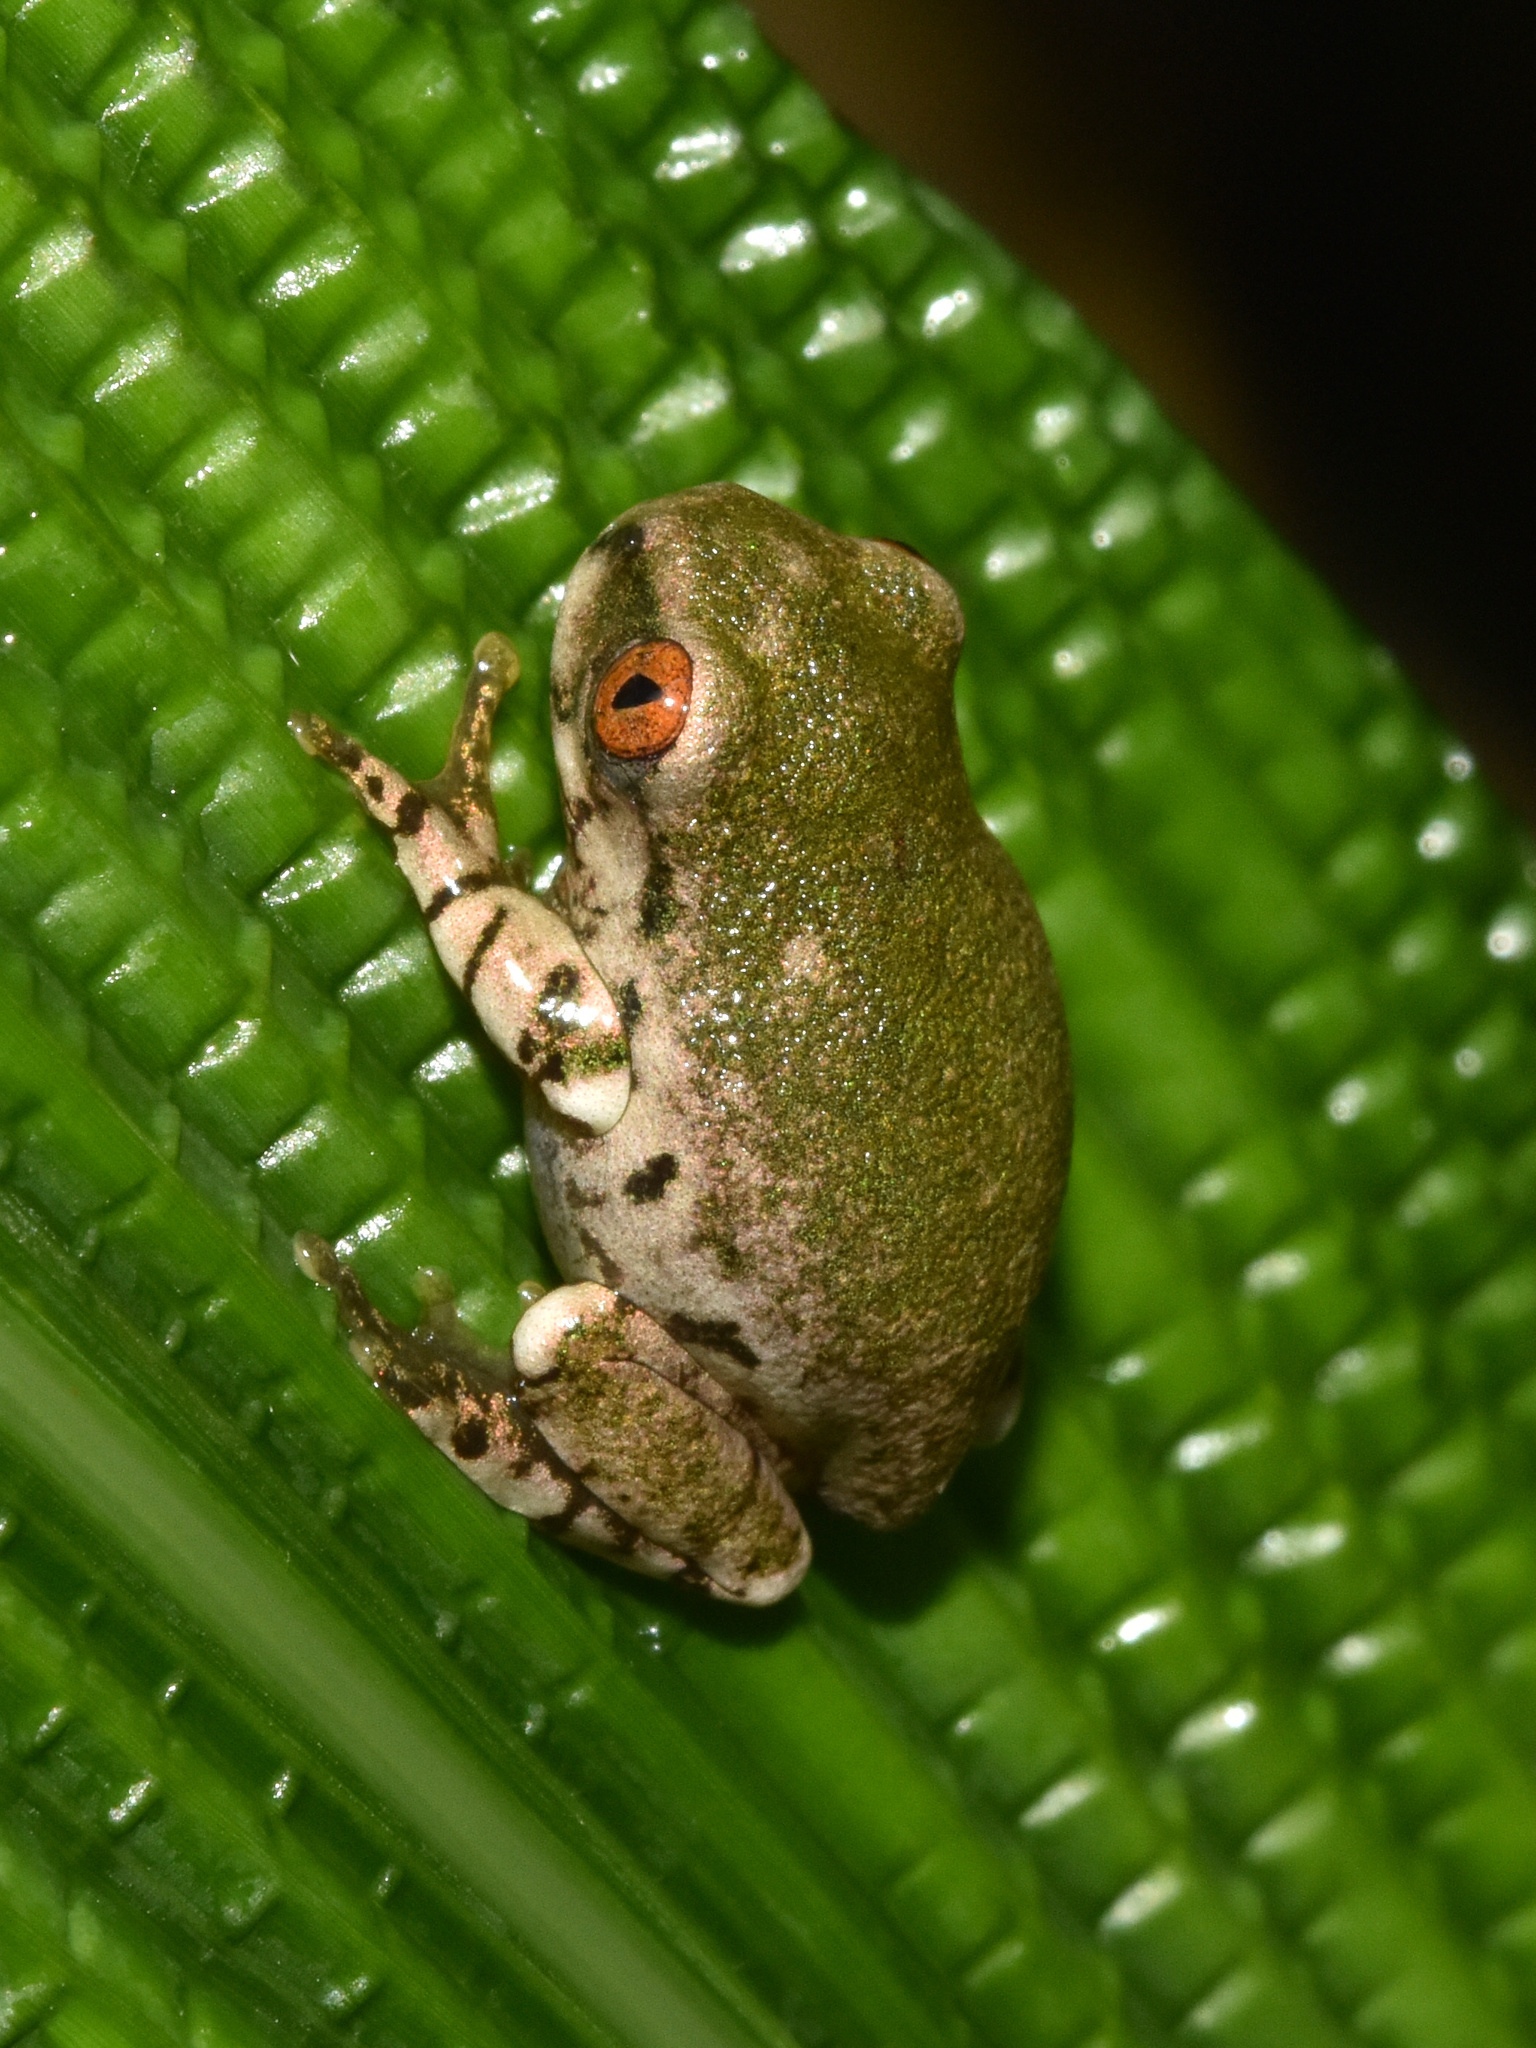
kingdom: Animalia
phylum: Chordata
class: Amphibia
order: Anura
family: Arthroleptidae
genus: Leptopelis
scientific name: Leptopelis natalensis
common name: Natal tree frog
